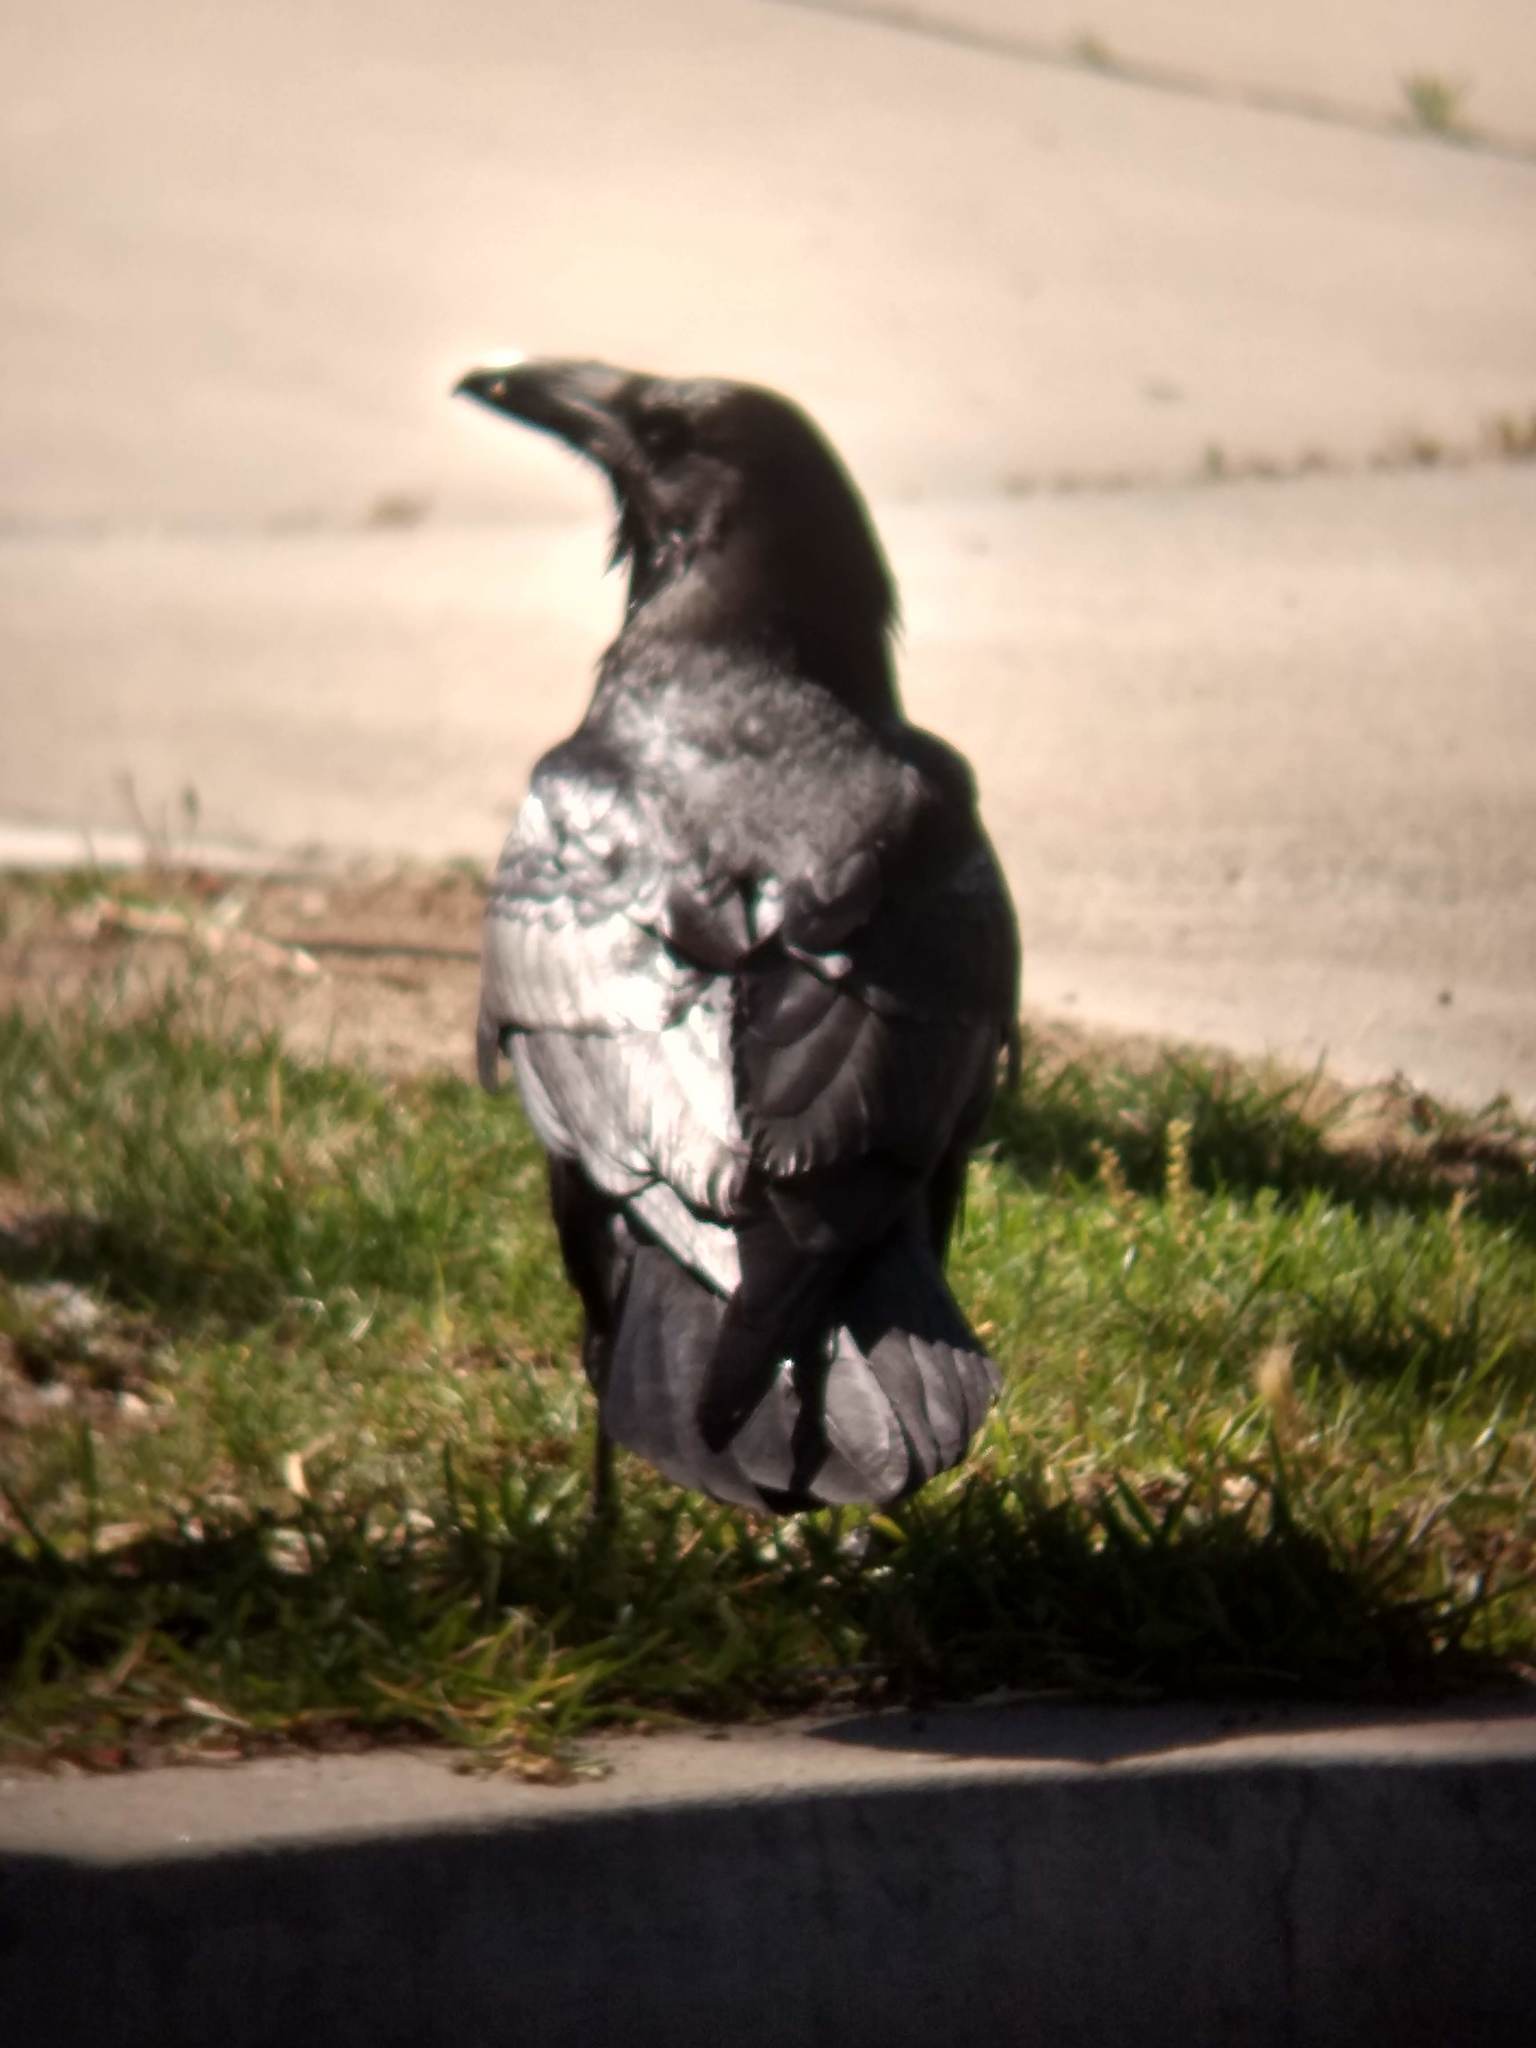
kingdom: Animalia
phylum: Chordata
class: Aves
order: Passeriformes
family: Corvidae
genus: Corvus
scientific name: Corvus corax
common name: Common raven
